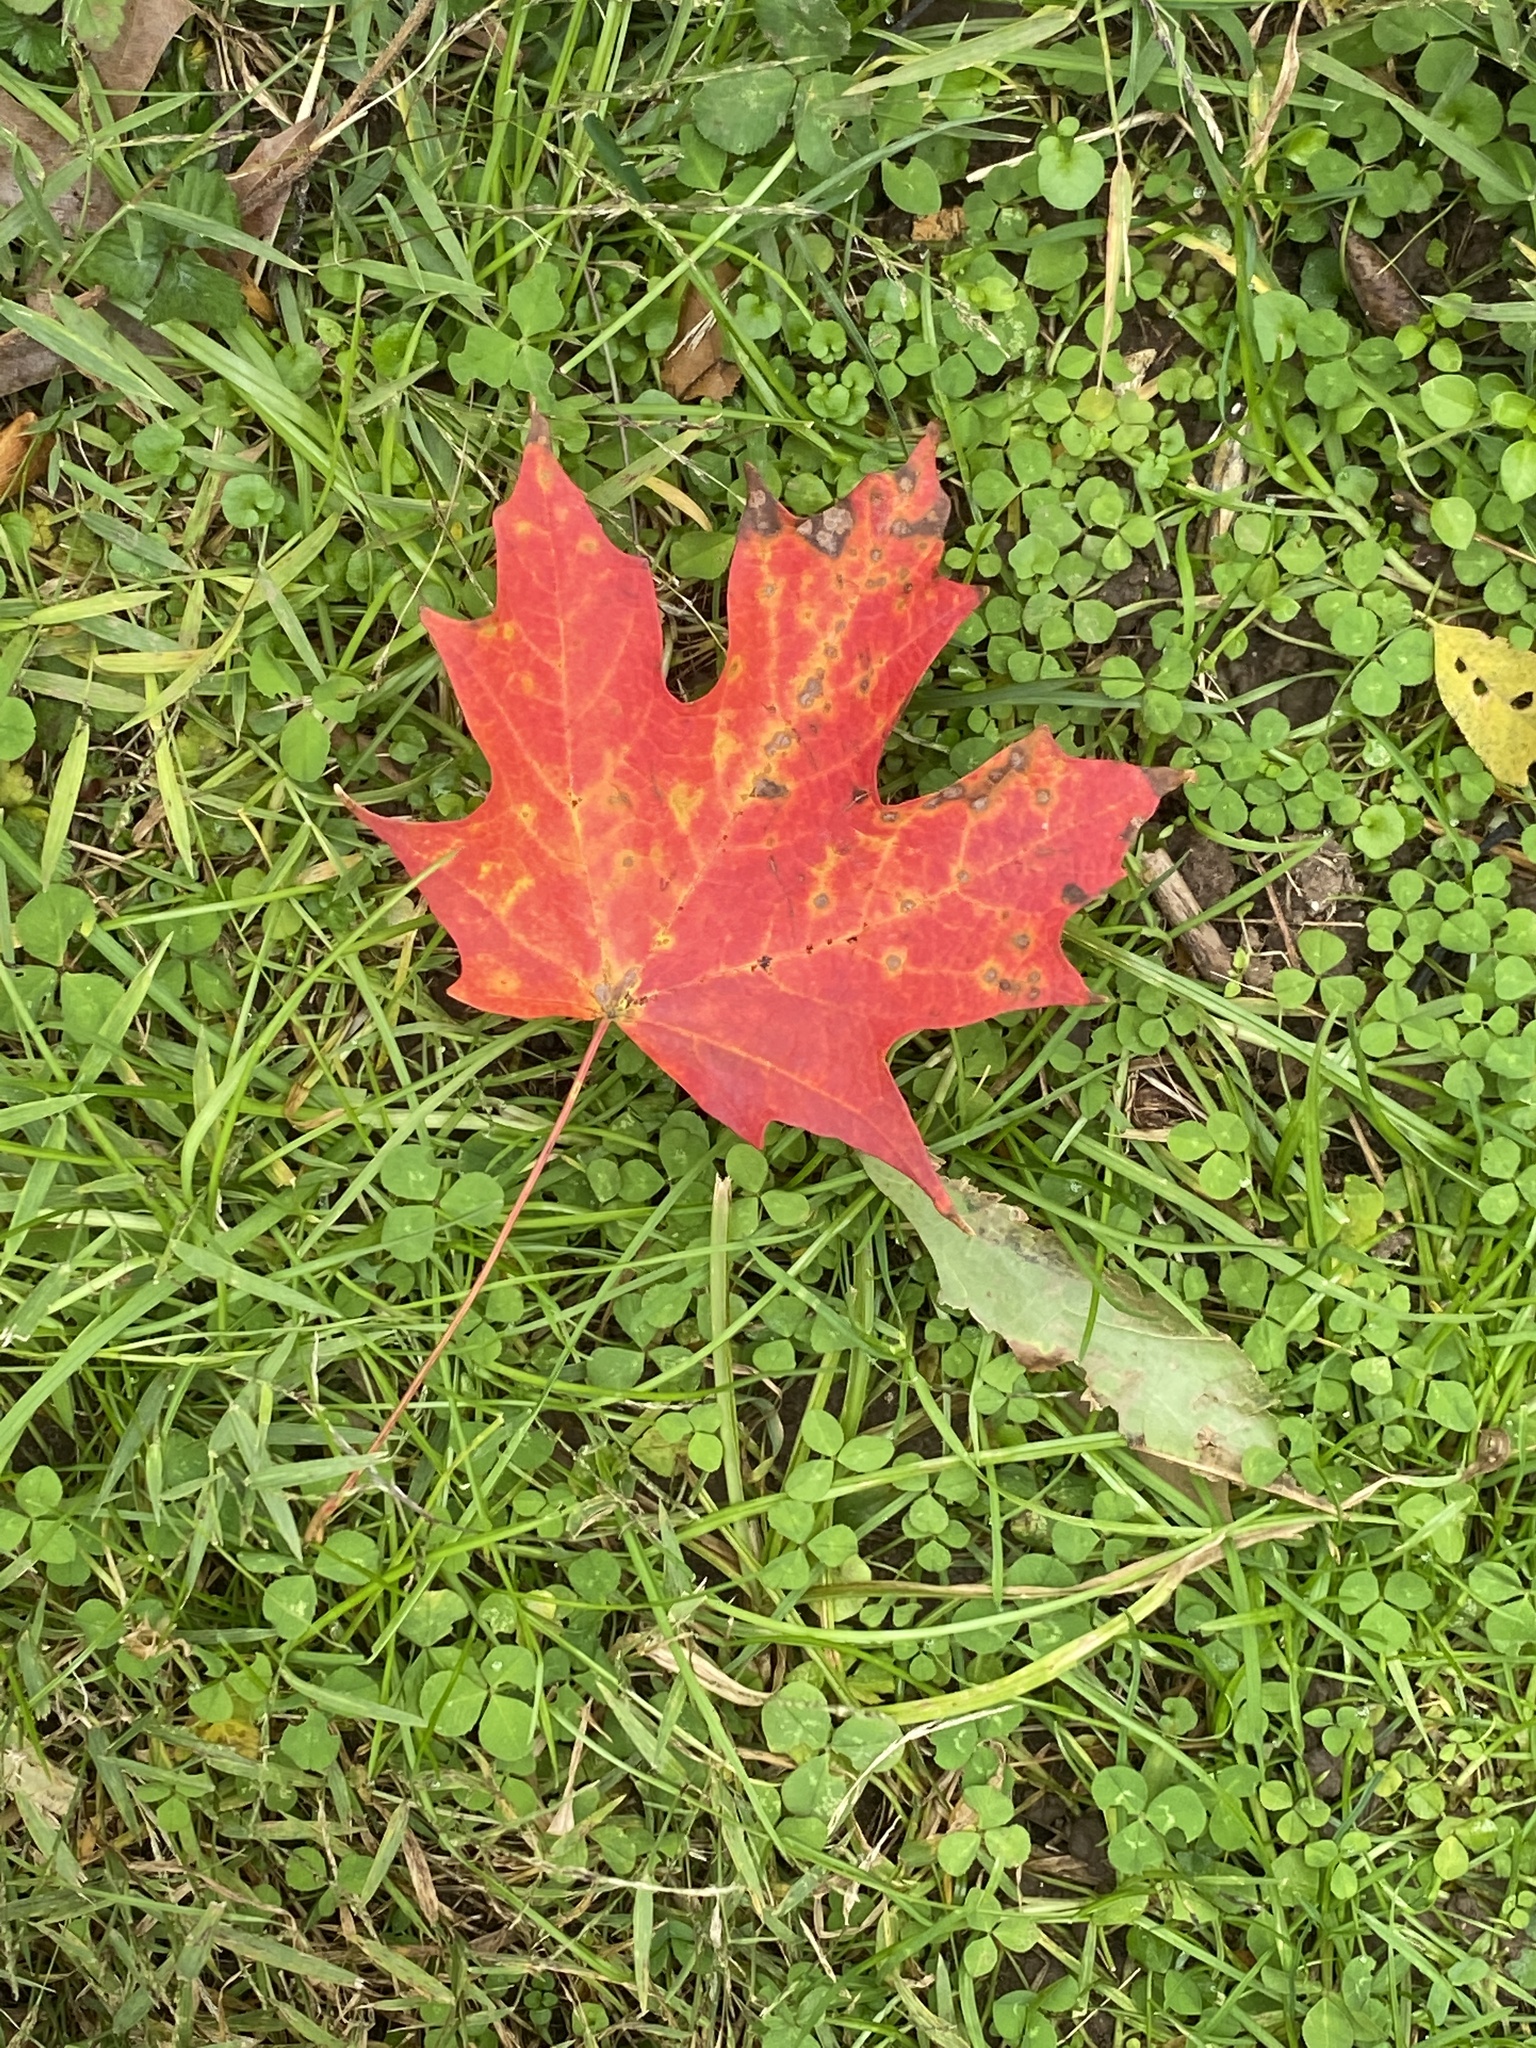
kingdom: Plantae
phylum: Tracheophyta
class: Magnoliopsida
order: Sapindales
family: Sapindaceae
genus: Acer
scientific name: Acer saccharum
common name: Sugar maple
